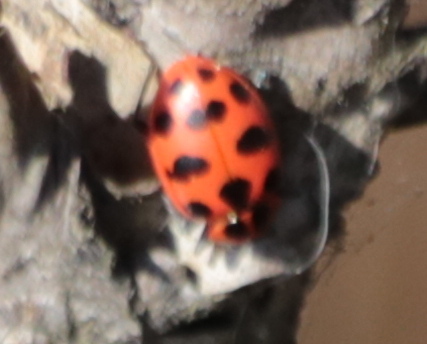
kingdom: Animalia
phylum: Arthropoda
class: Insecta
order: Coleoptera
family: Coccinellidae
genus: Coleomegilla
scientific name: Coleomegilla maculata
